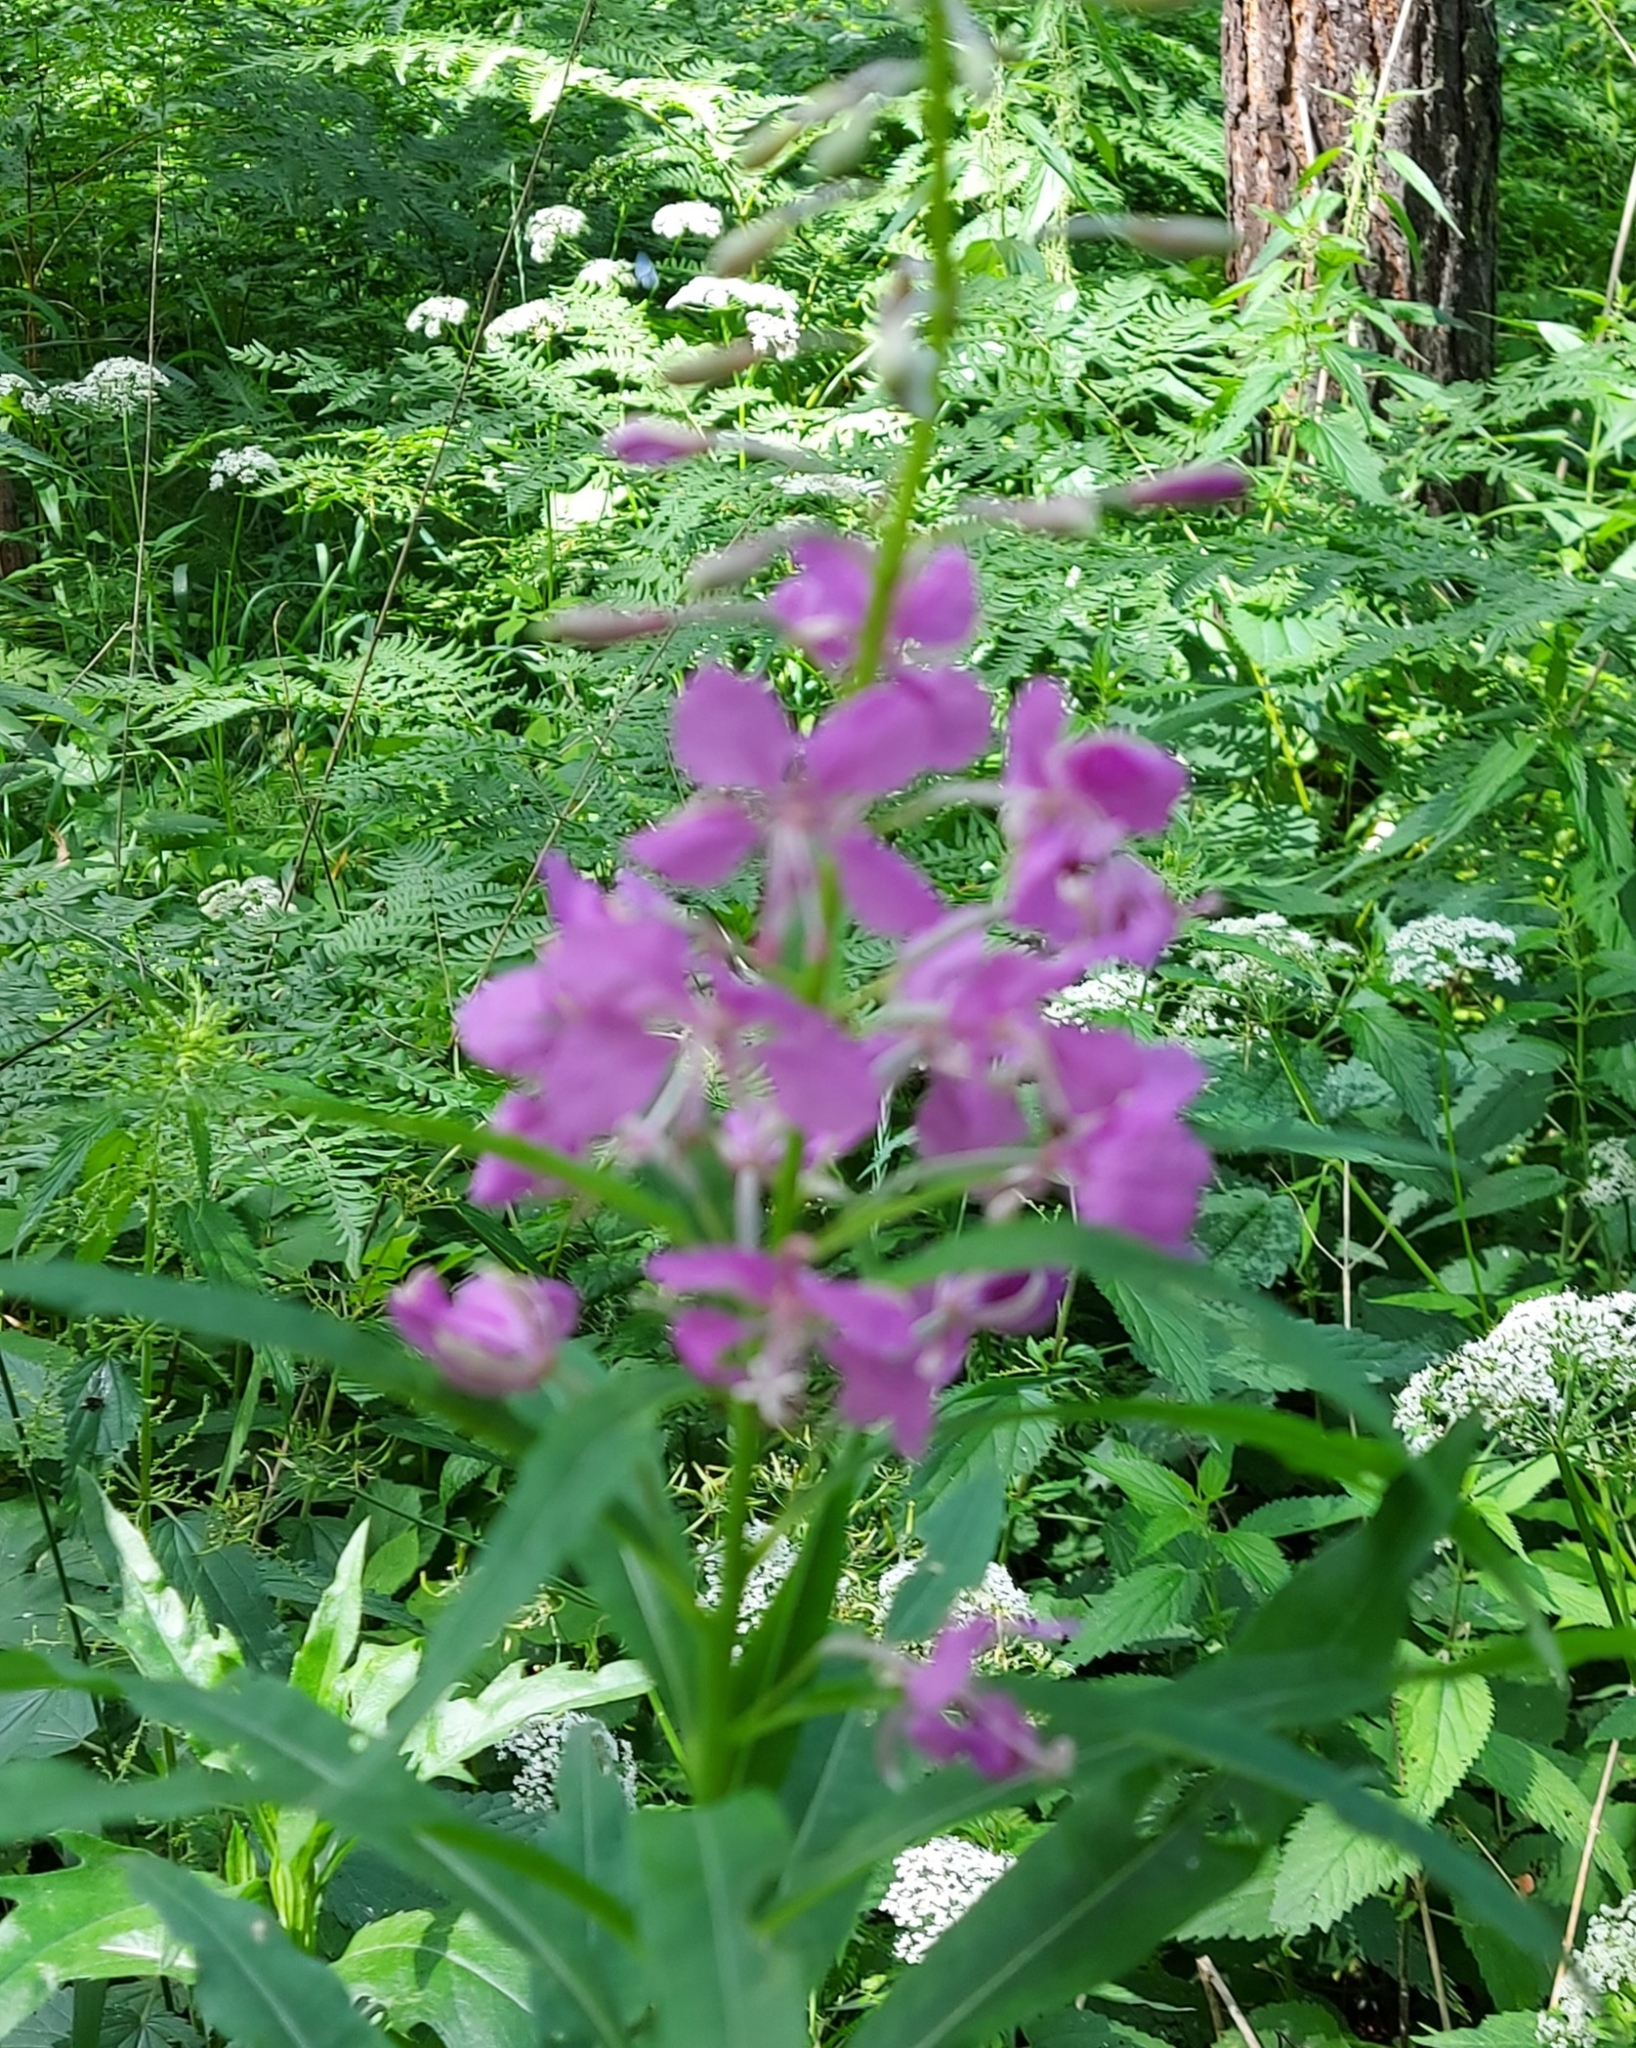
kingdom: Plantae
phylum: Tracheophyta
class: Magnoliopsida
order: Myrtales
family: Onagraceae
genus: Chamaenerion
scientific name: Chamaenerion angustifolium
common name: Fireweed
